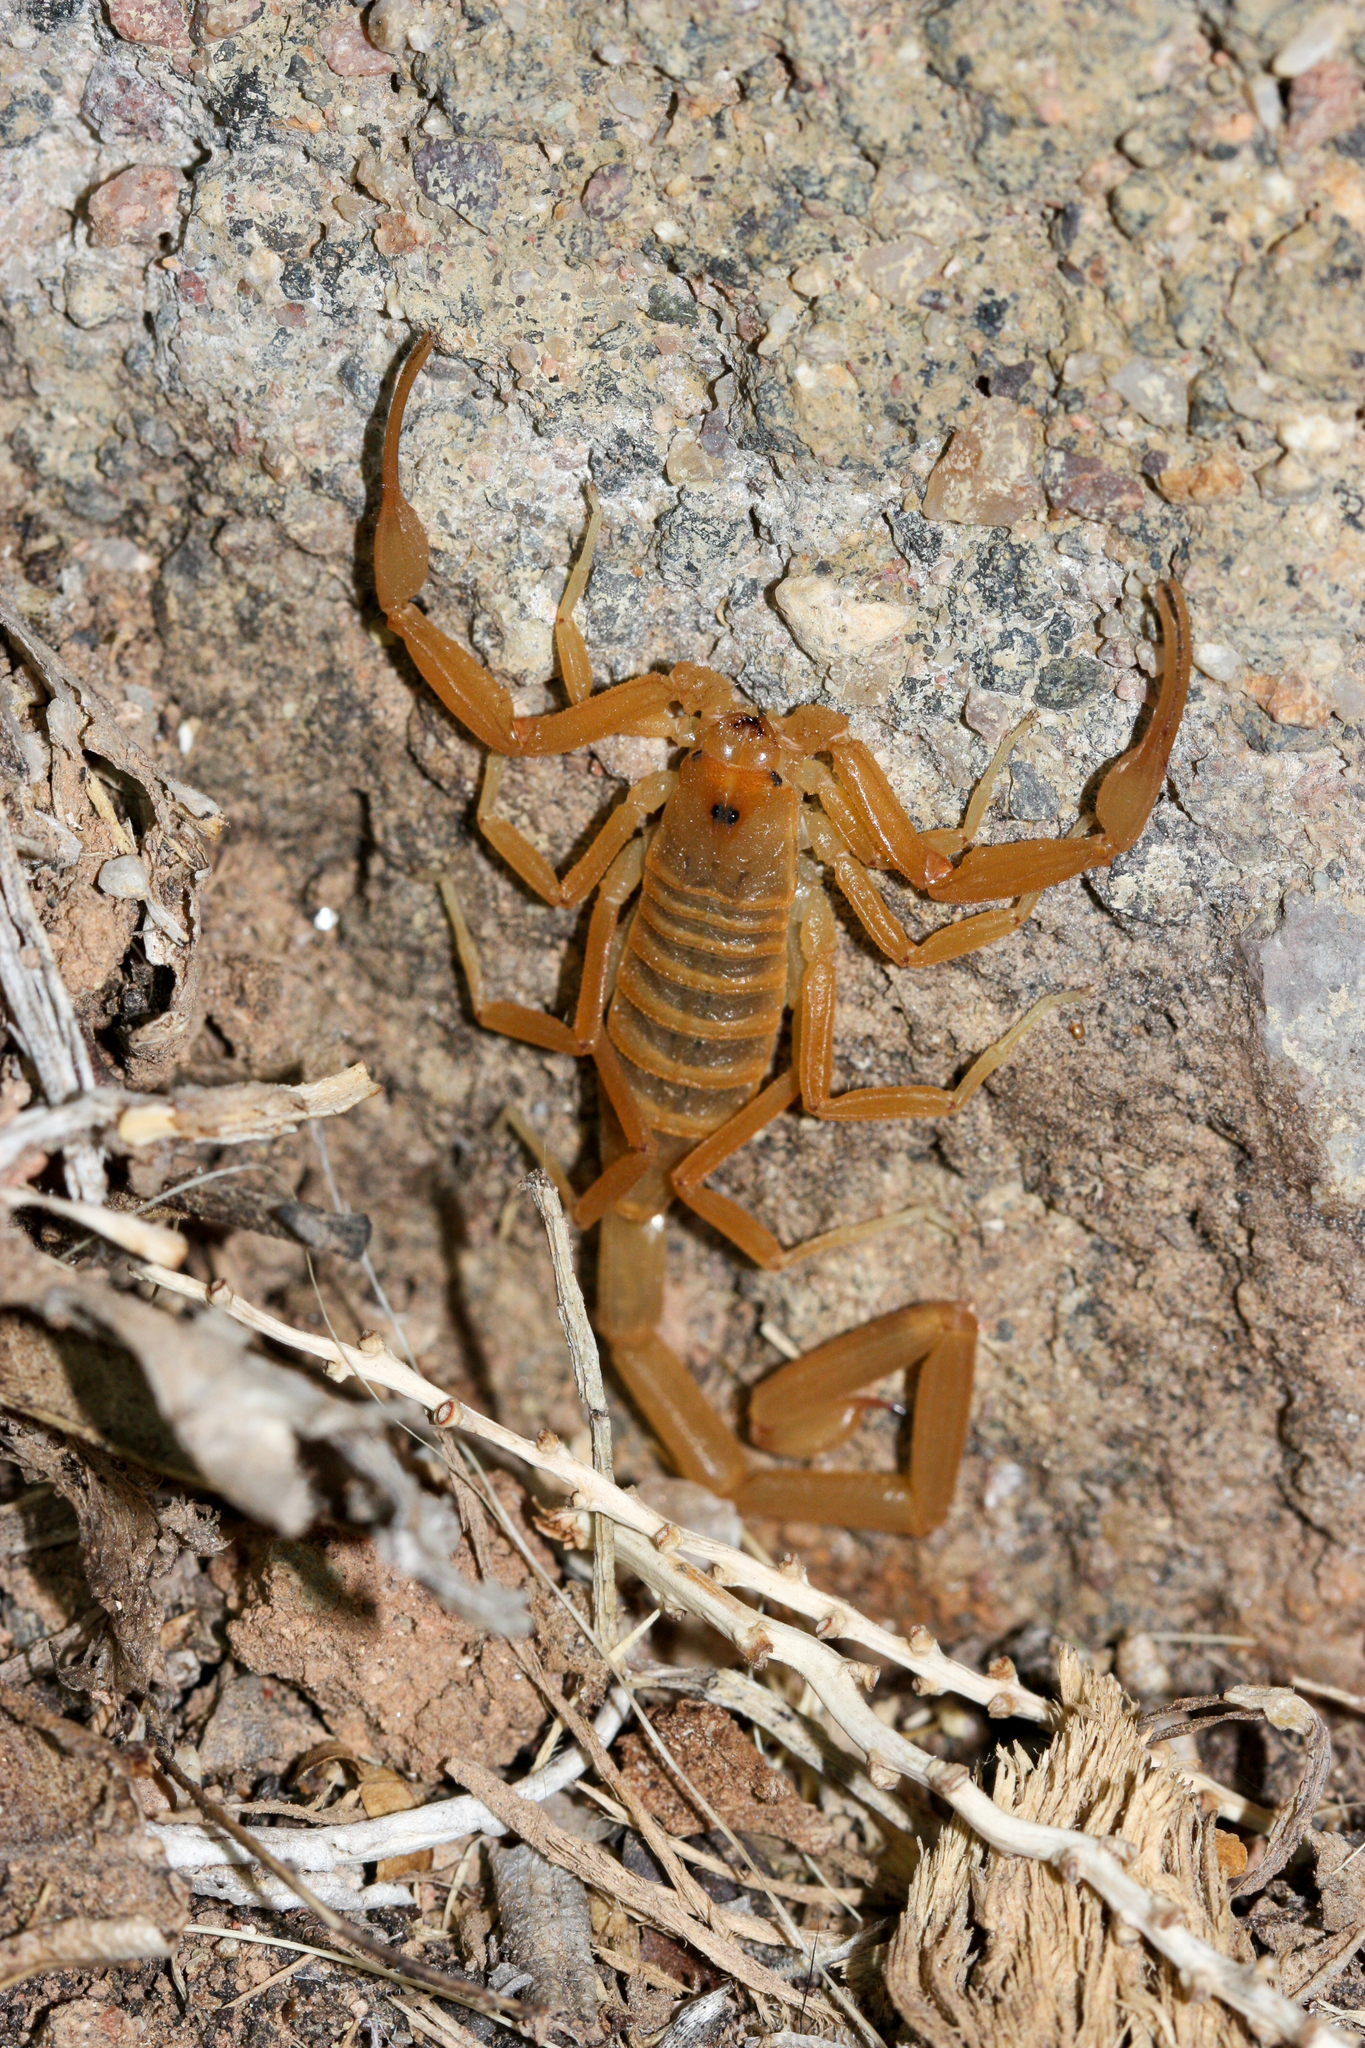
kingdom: Animalia
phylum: Arthropoda
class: Arachnida
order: Scorpiones
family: Buthidae
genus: Centruroides
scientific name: Centruroides sculpturatus
